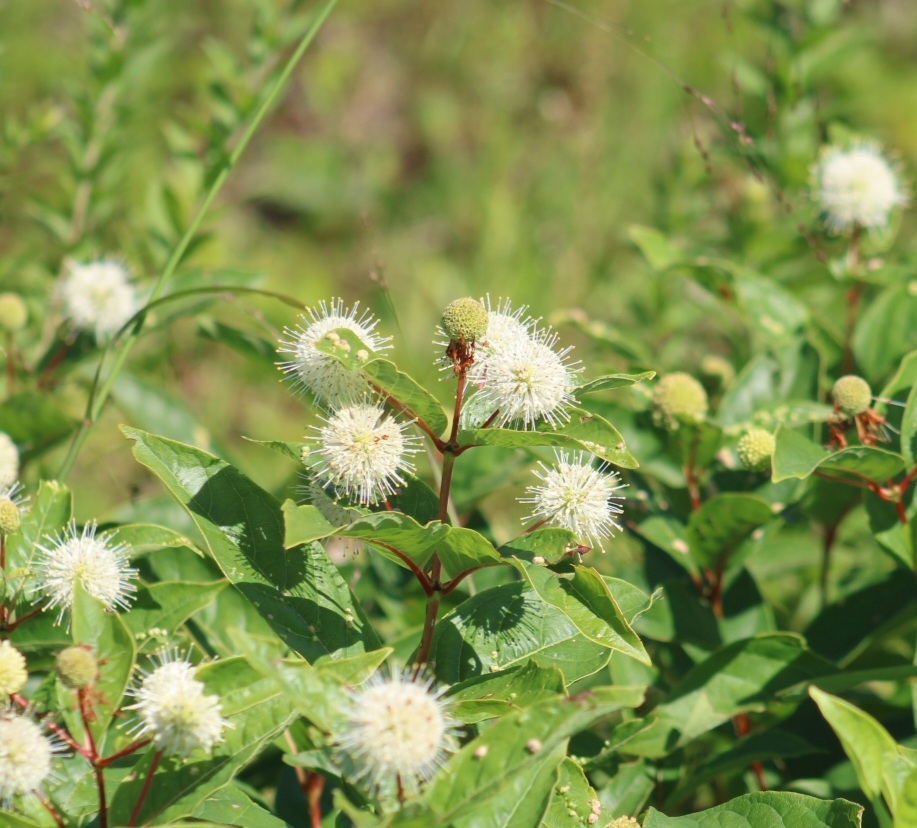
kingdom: Plantae
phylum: Tracheophyta
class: Magnoliopsida
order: Gentianales
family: Rubiaceae
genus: Cephalanthus
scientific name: Cephalanthus occidentalis
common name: Button-willow
